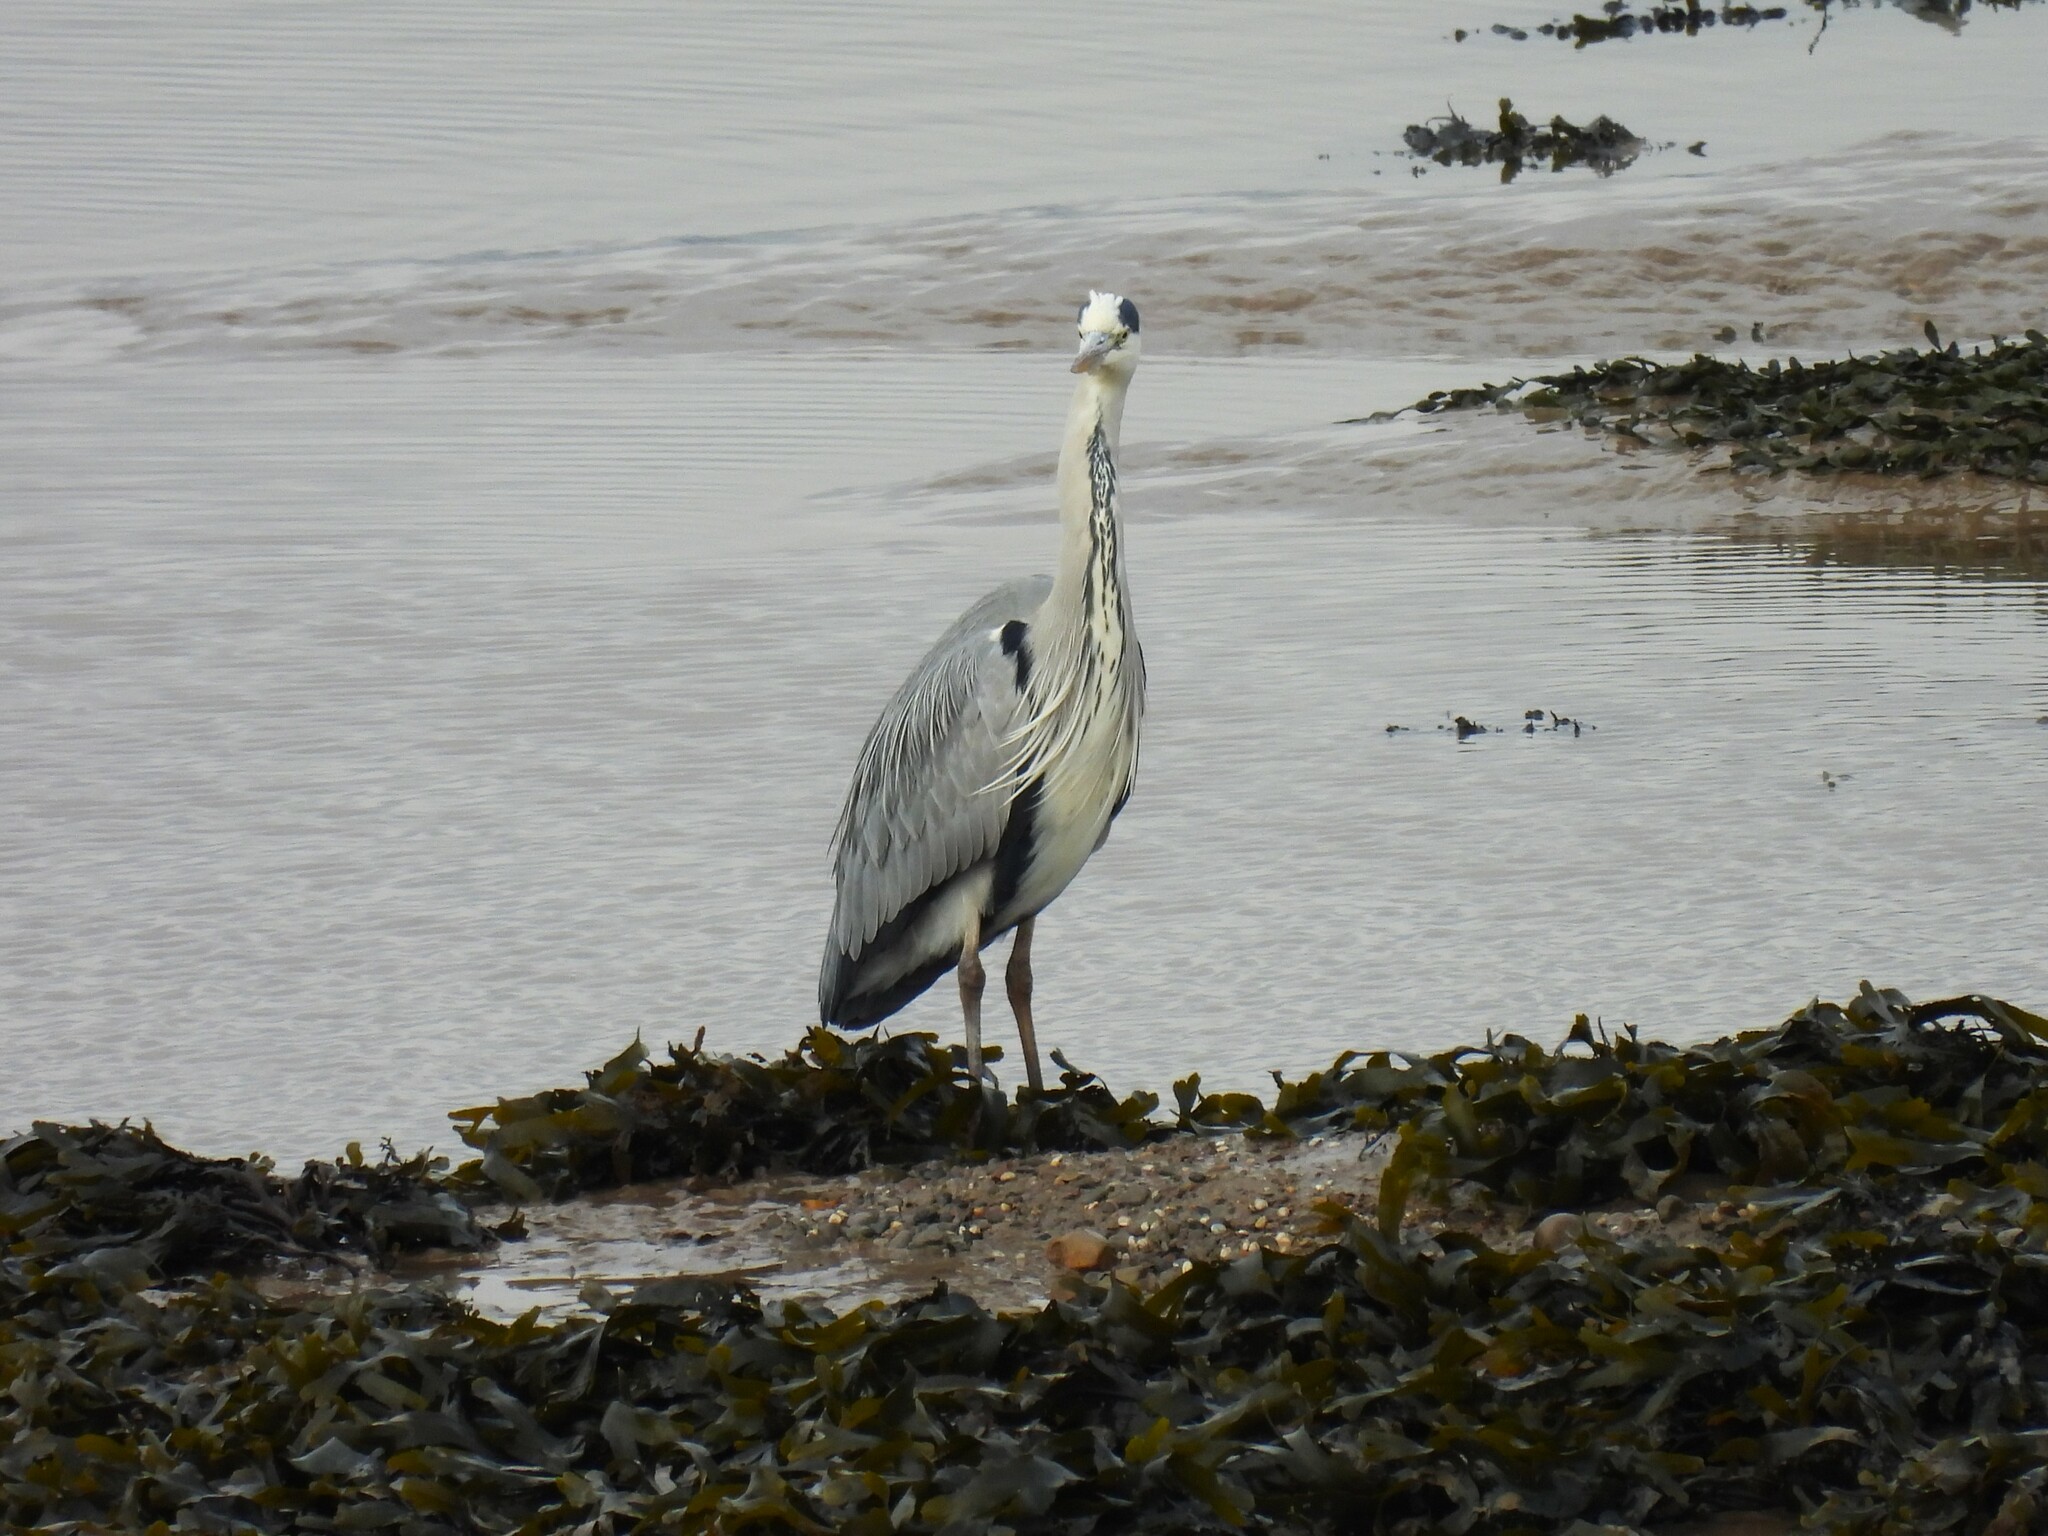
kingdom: Animalia
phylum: Chordata
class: Aves
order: Pelecaniformes
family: Ardeidae
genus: Ardea
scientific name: Ardea cinerea
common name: Grey heron
